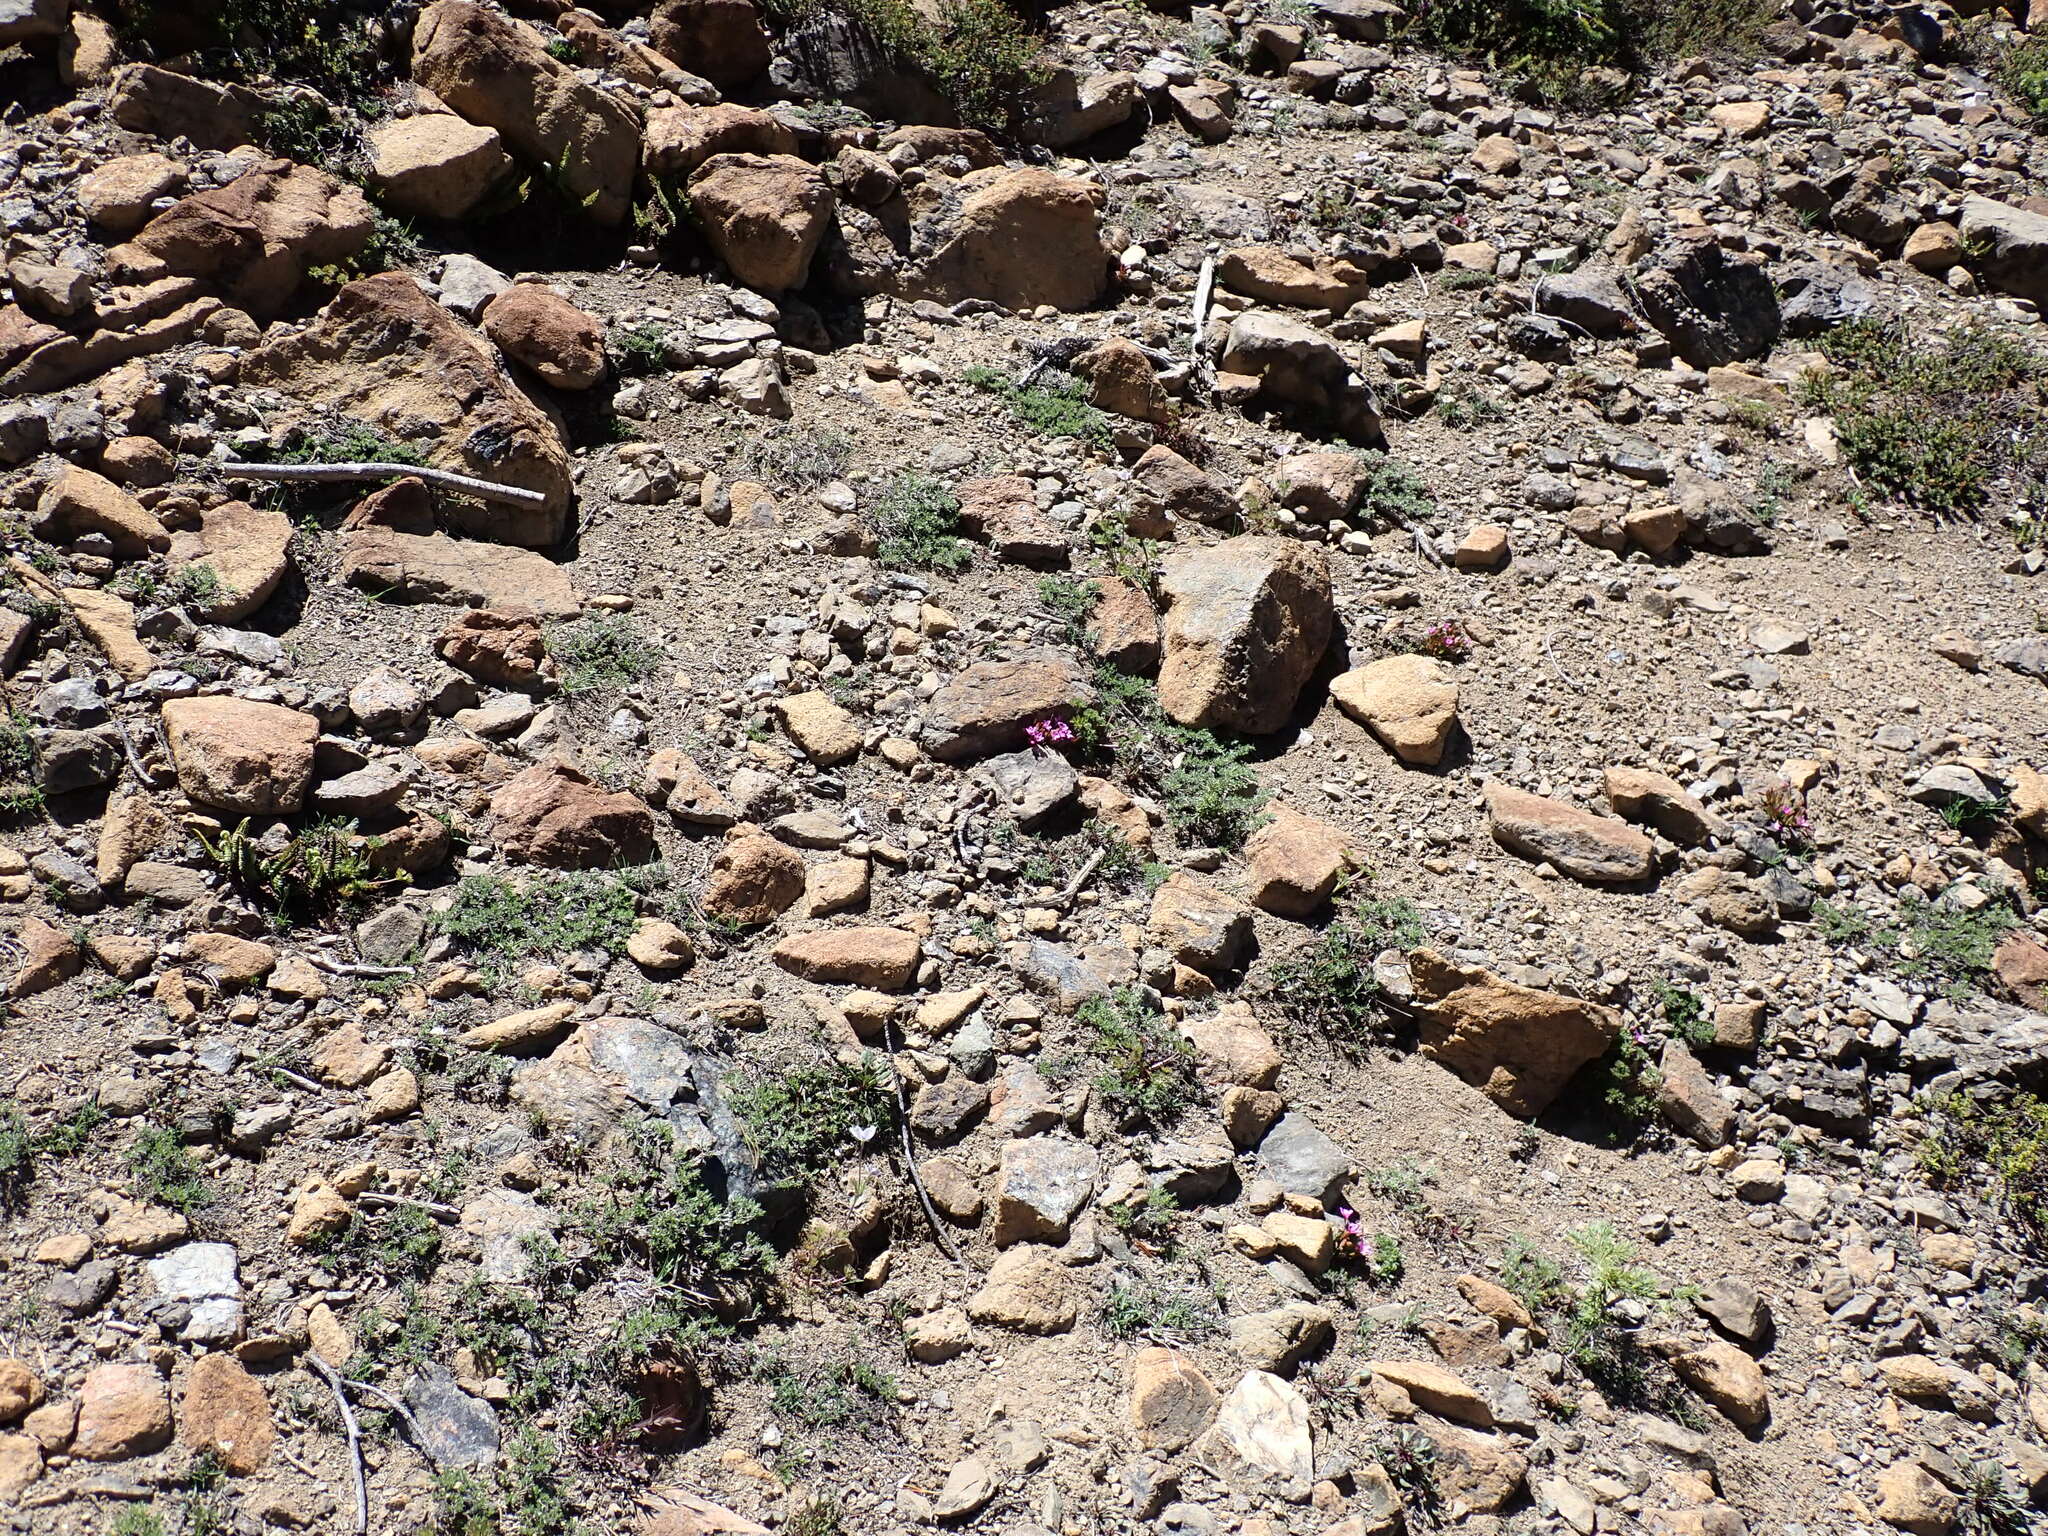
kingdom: Plantae
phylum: Tracheophyta
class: Magnoliopsida
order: Caryophyllales
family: Montiaceae
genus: Claytonia
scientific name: Claytonia megarhiza
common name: Alpine spring beauty
